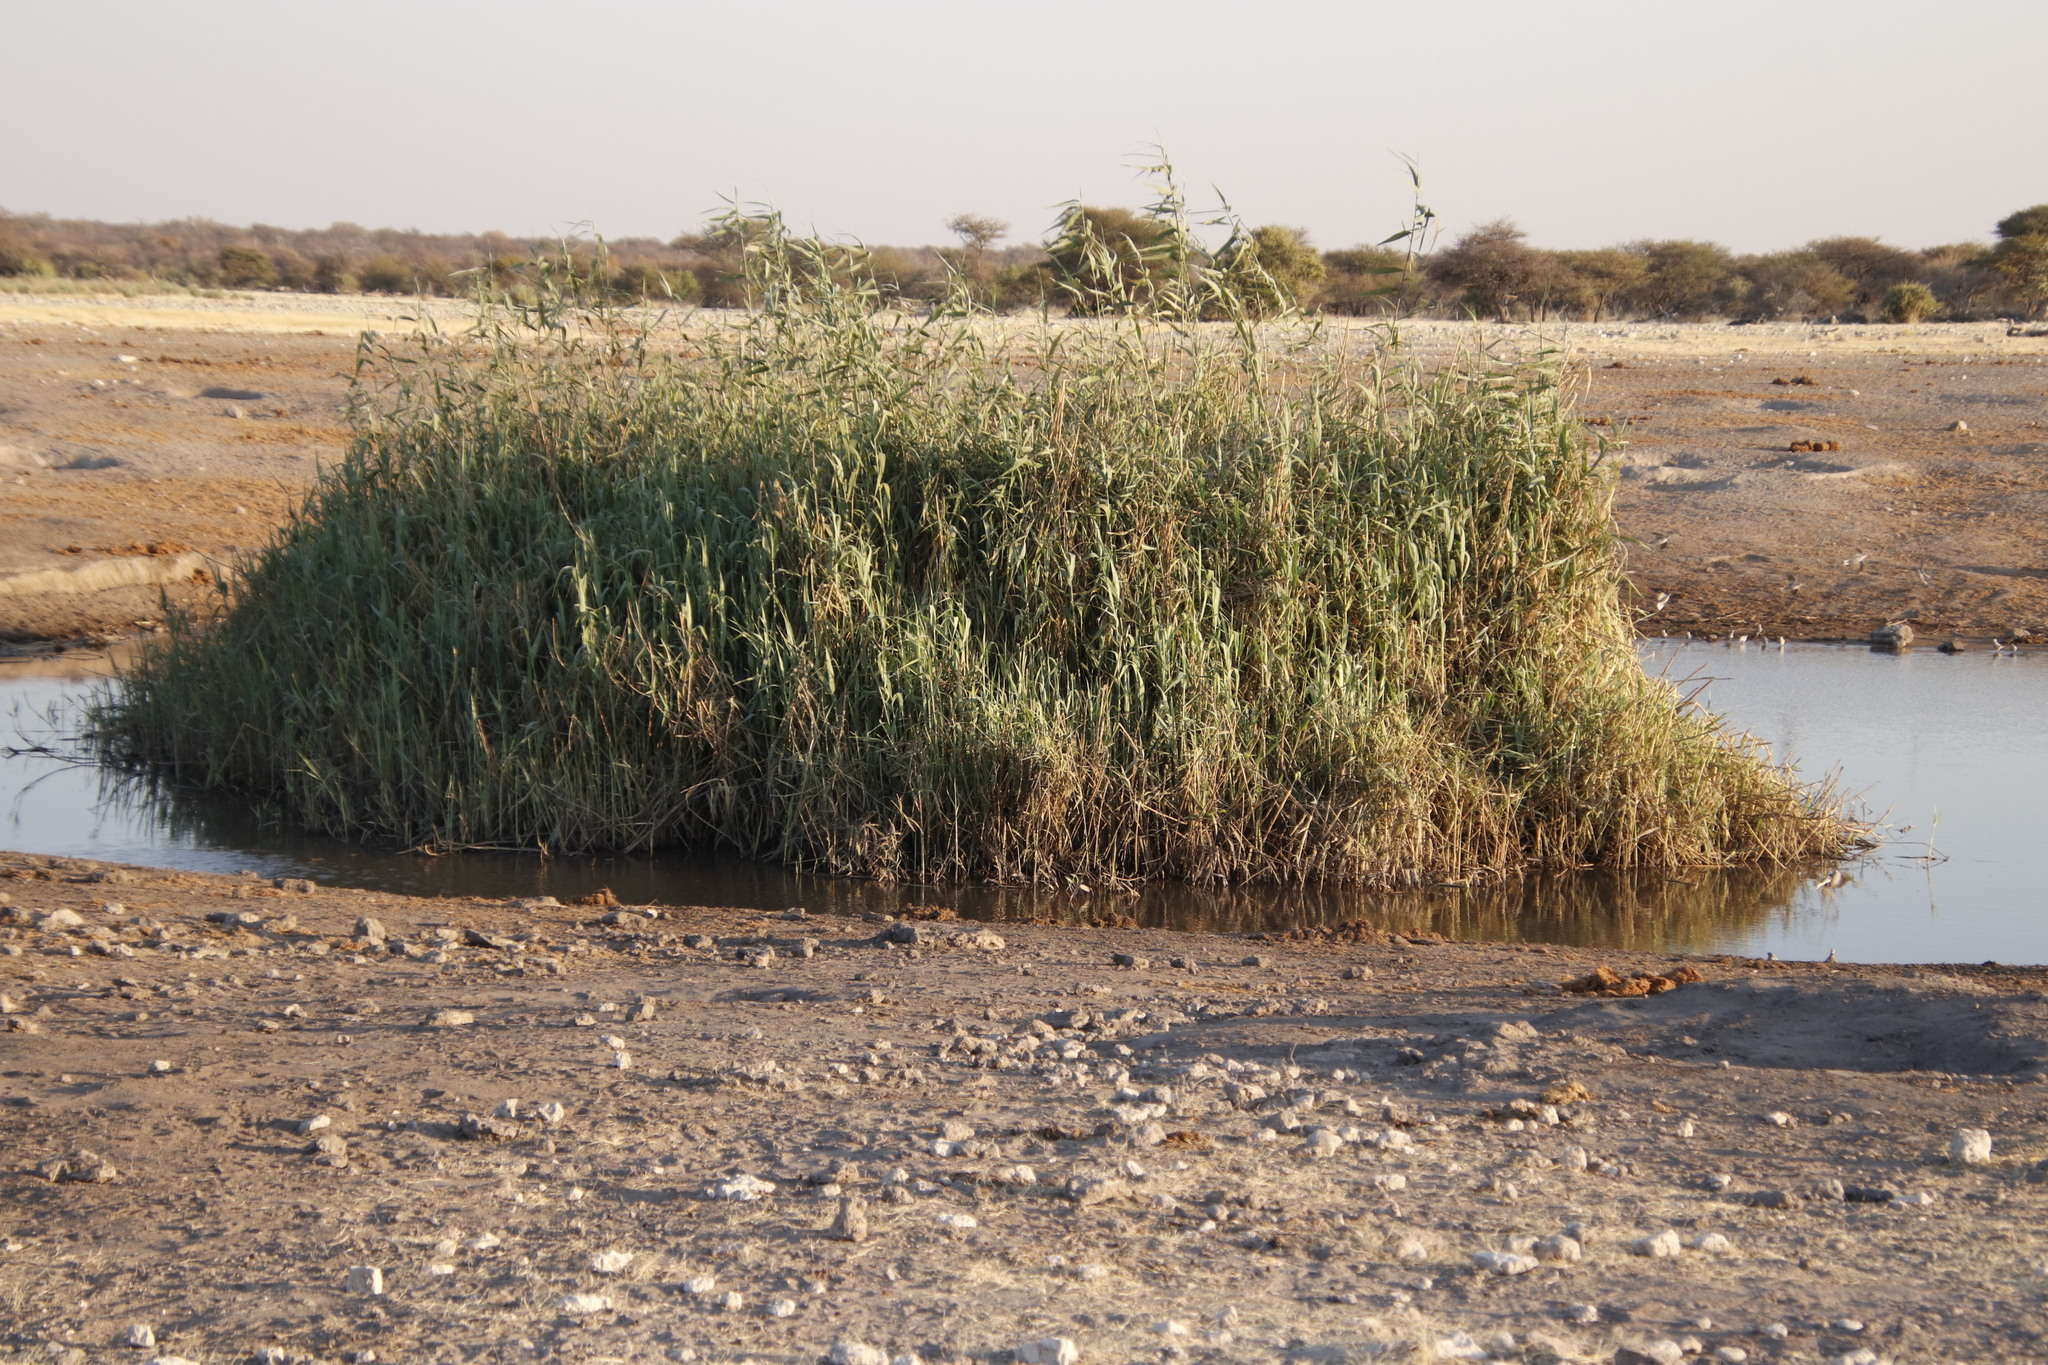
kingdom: Plantae
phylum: Tracheophyta
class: Liliopsida
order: Poales
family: Poaceae
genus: Phragmites
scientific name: Phragmites australis
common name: Common reed
